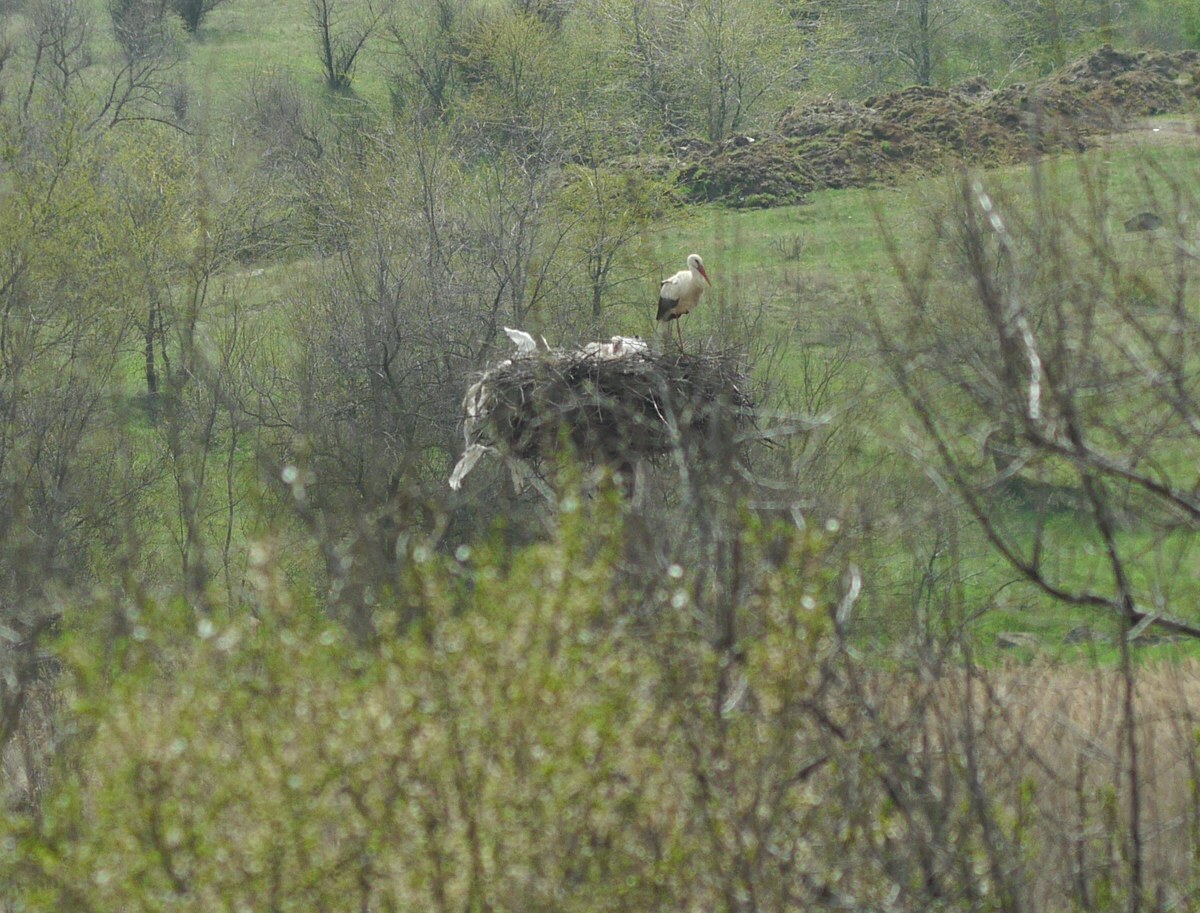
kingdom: Animalia
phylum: Chordata
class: Aves
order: Ciconiiformes
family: Ciconiidae
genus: Ciconia
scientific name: Ciconia ciconia
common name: White stork
